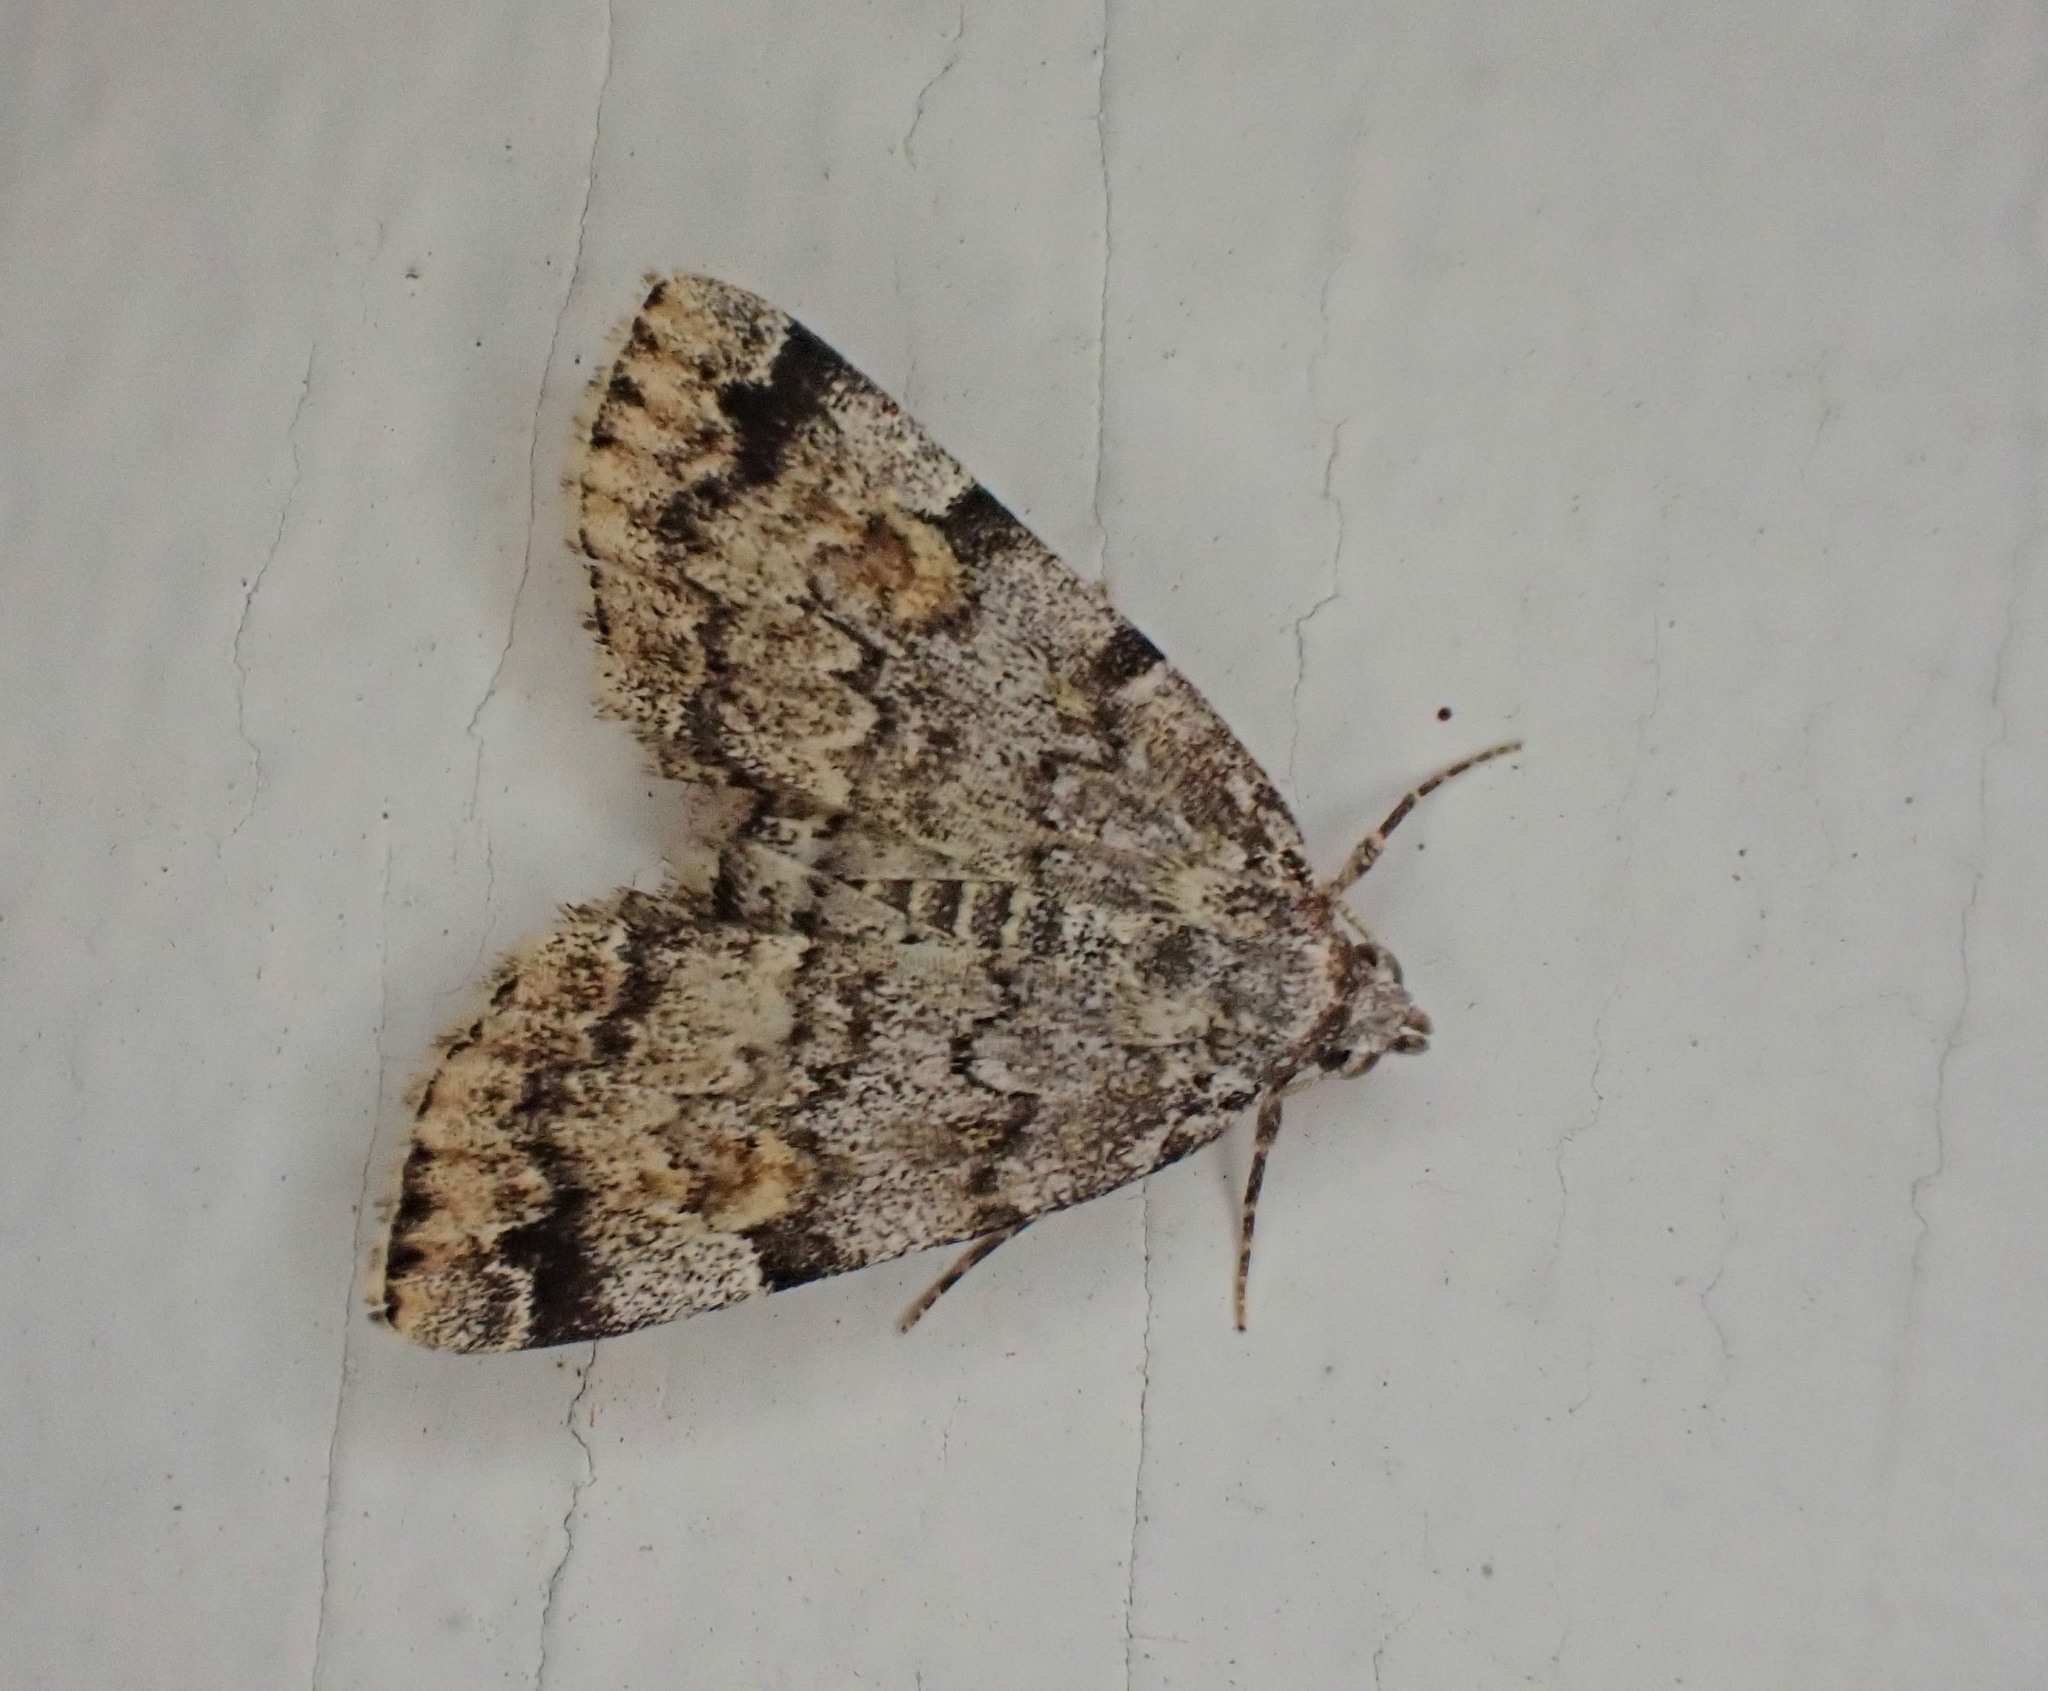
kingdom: Animalia
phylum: Arthropoda
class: Insecta
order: Lepidoptera
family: Erebidae
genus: Idia
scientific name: Idia americalis
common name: American idia moth
